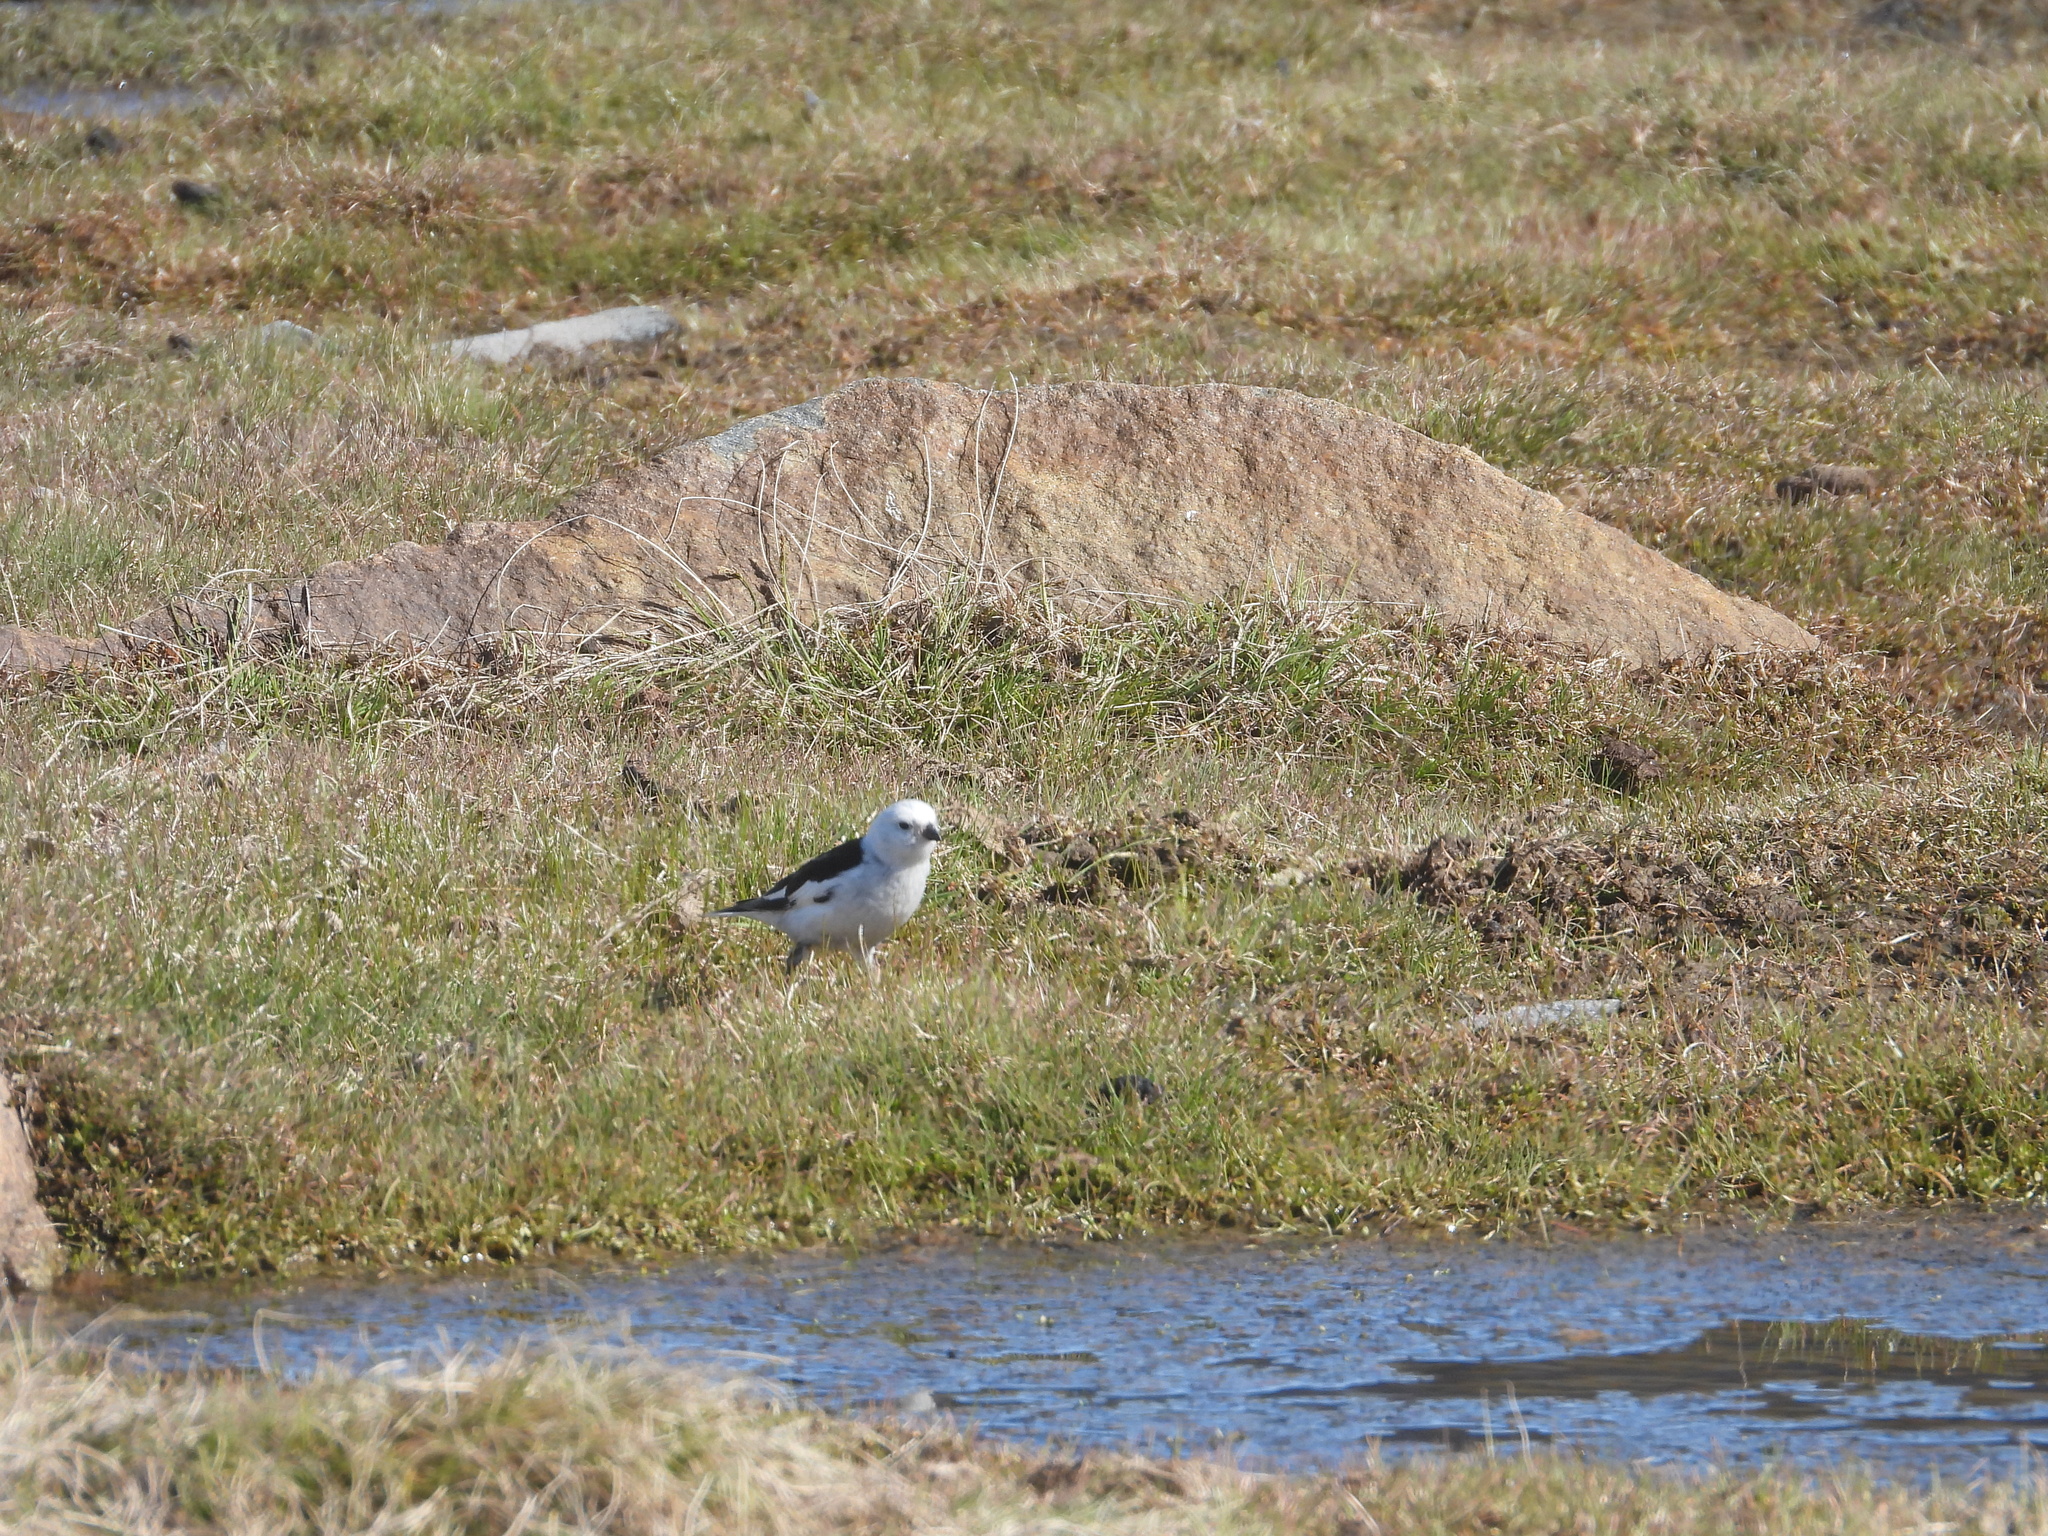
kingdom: Animalia
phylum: Chordata
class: Aves
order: Passeriformes
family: Calcariidae
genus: Plectrophenax
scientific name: Plectrophenax nivalis
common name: Snow bunting
